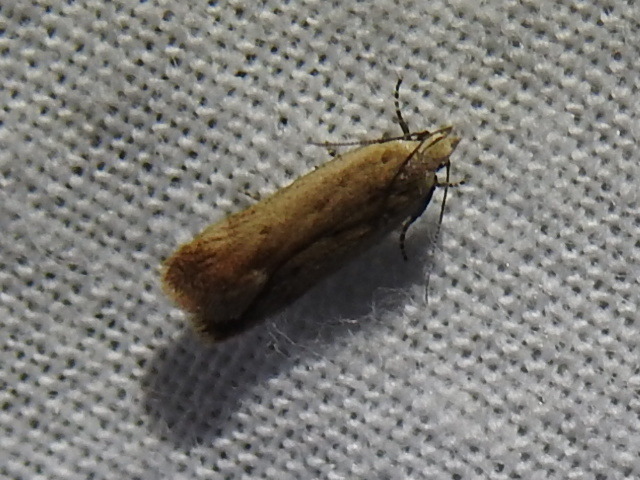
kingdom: Animalia
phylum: Arthropoda
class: Insecta
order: Lepidoptera
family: Gelechiidae
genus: Anacampsis
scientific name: Anacampsis fullonella
